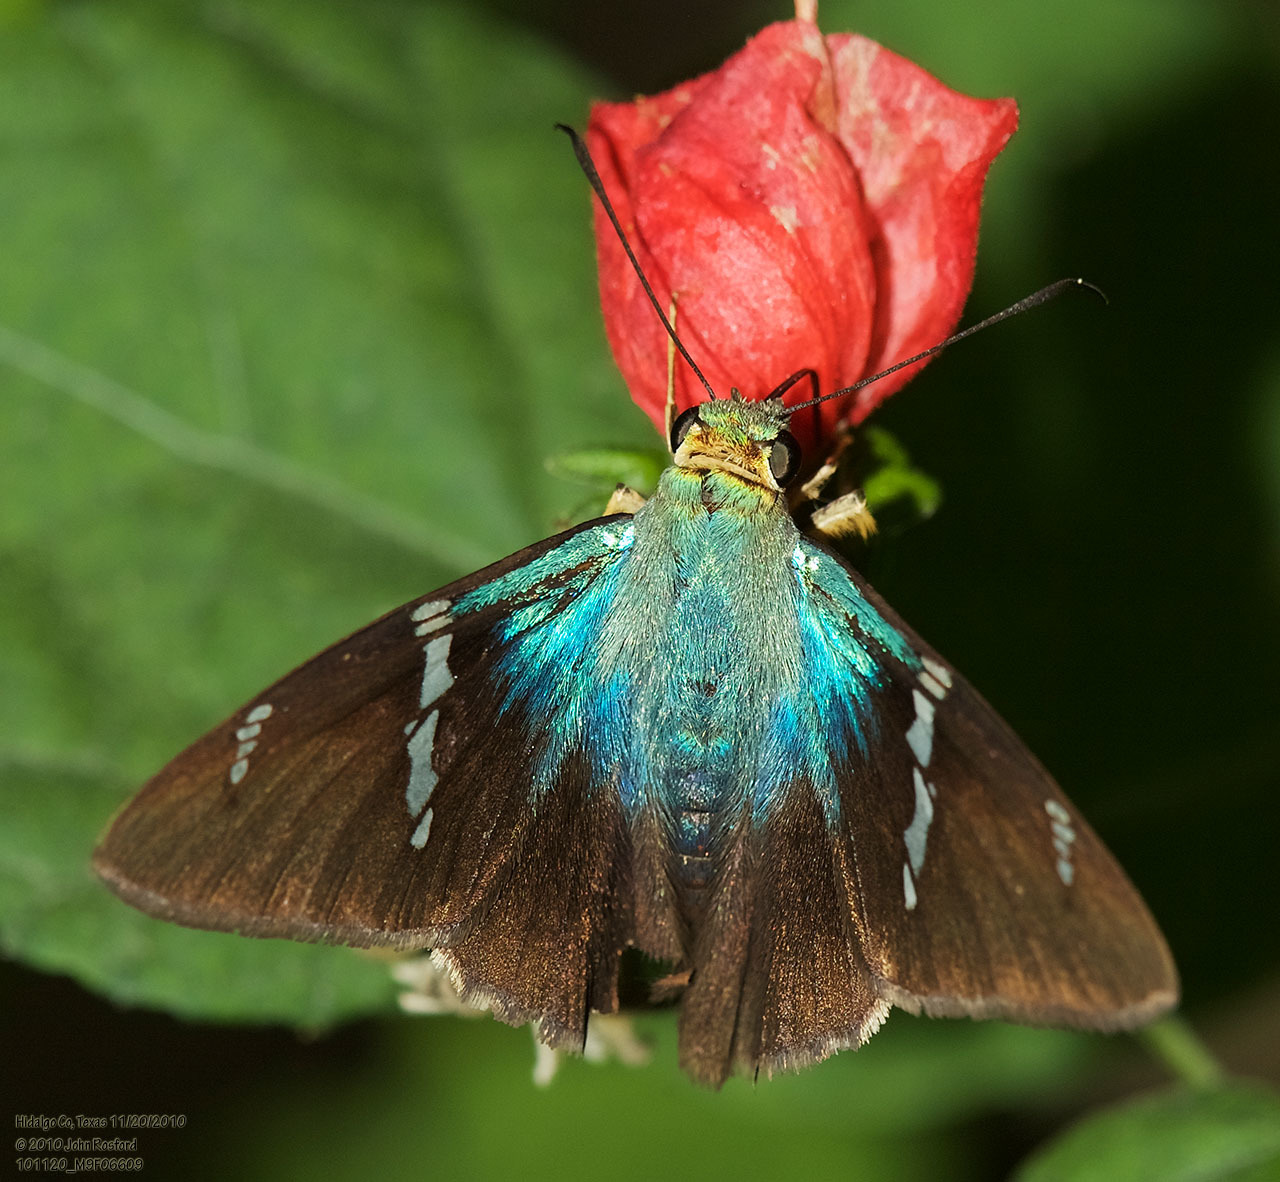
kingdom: Animalia
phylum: Arthropoda
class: Insecta
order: Lepidoptera
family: Hesperiidae
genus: Astraptes
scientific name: Astraptes fulgerator
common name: Two-barred flasher
